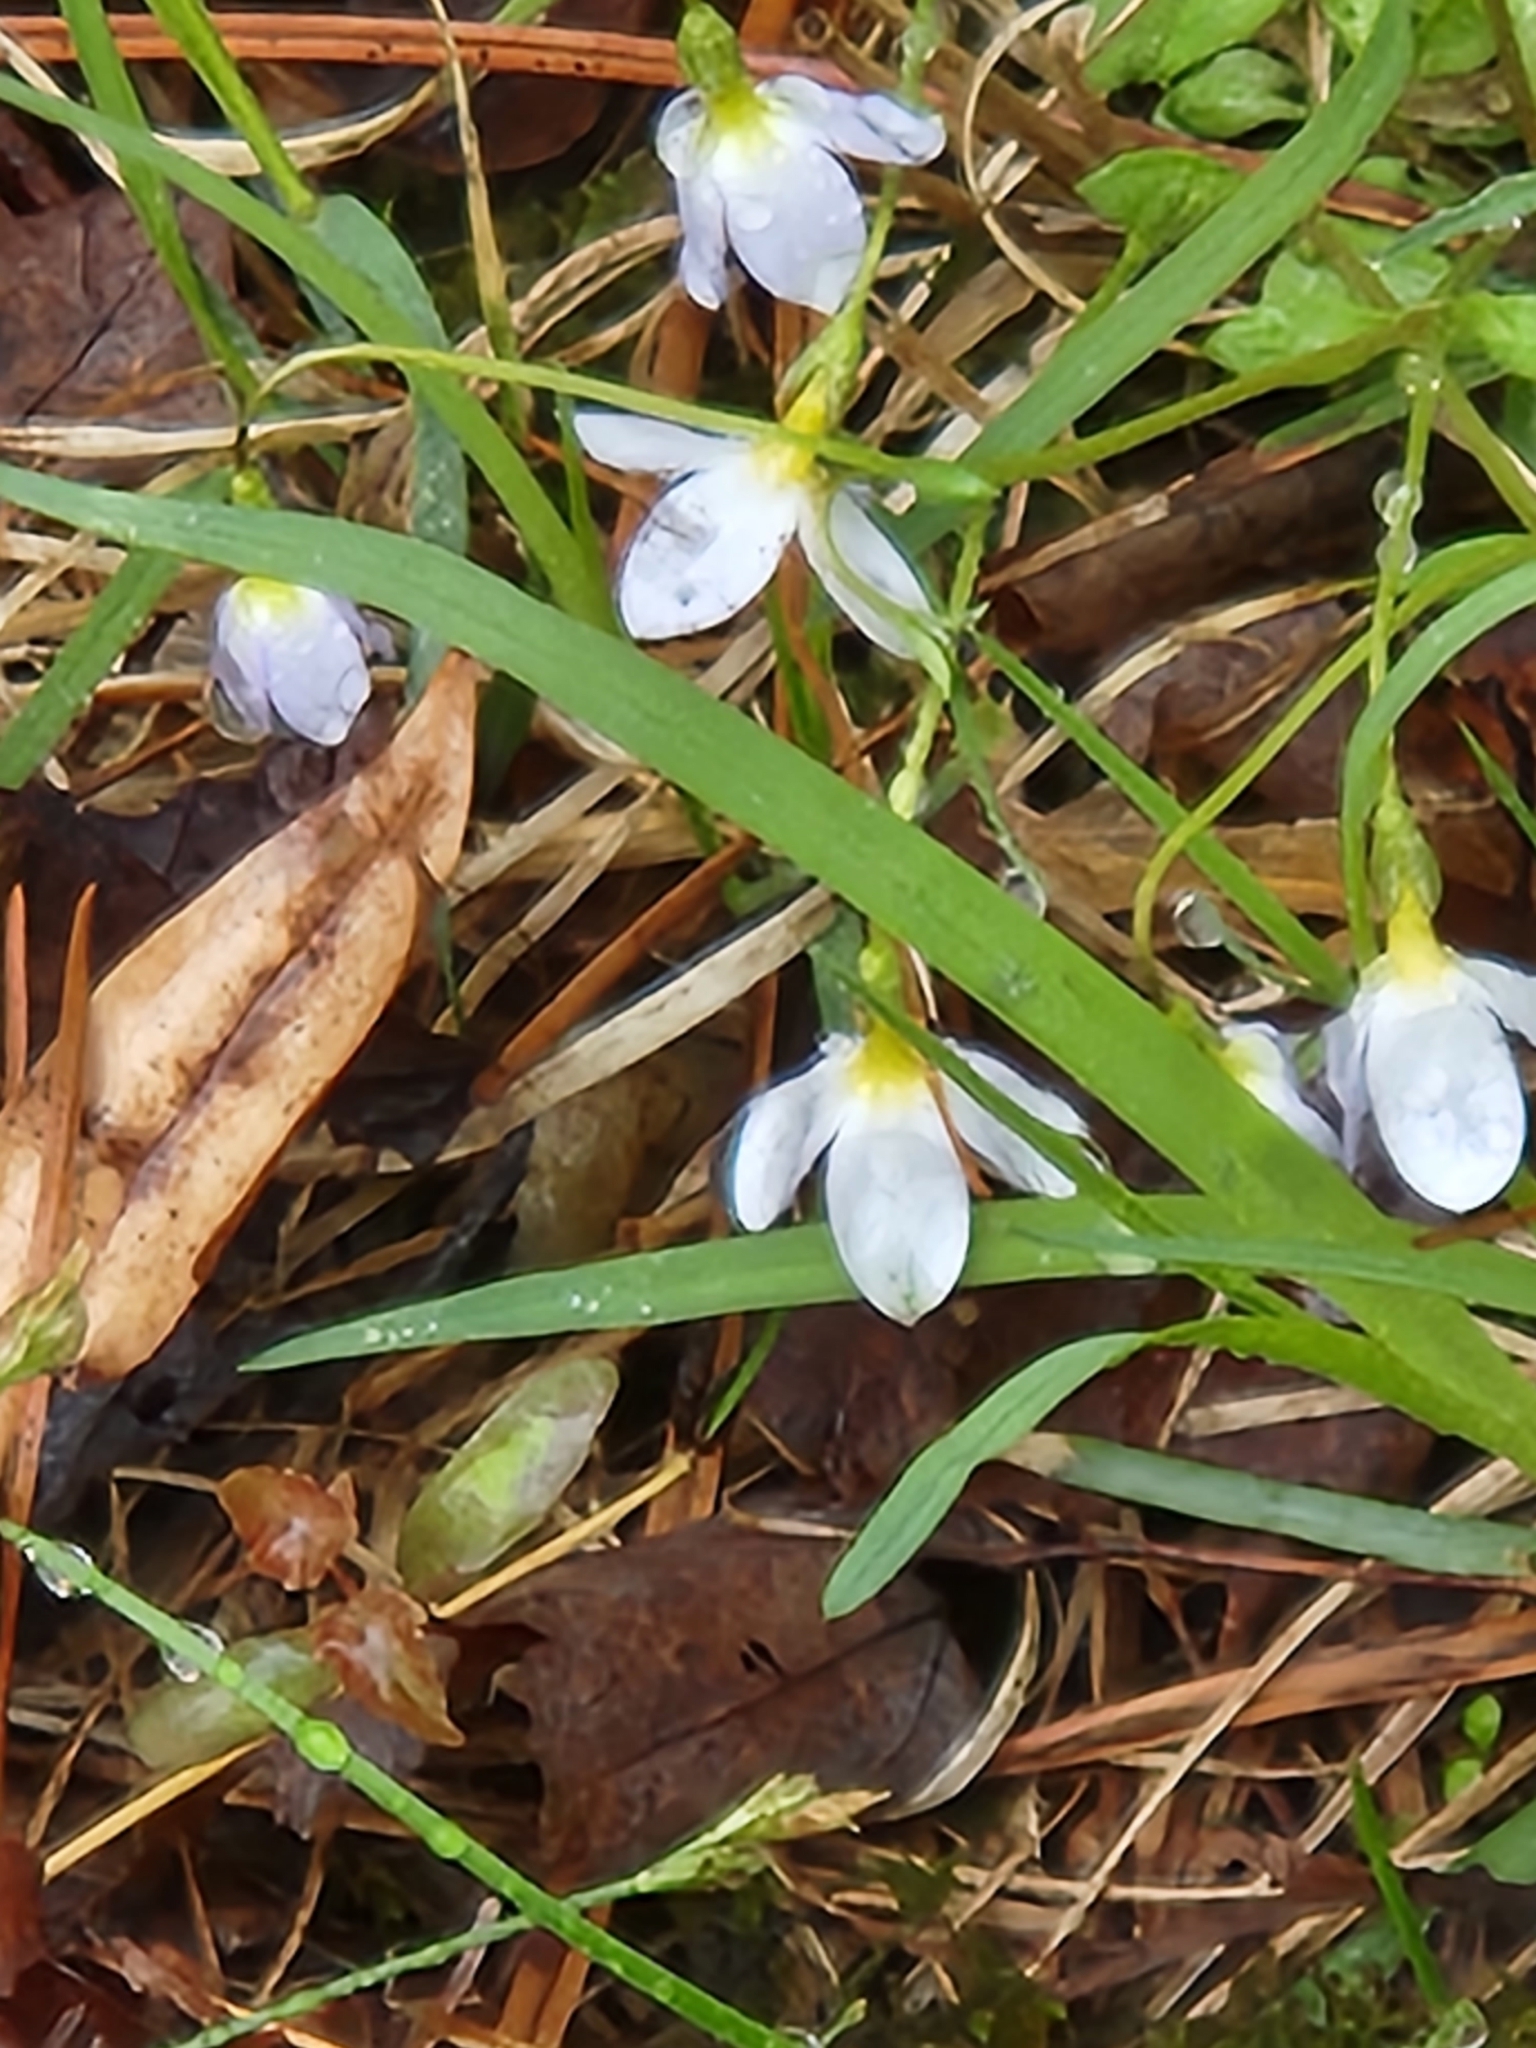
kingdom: Plantae
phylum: Tracheophyta
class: Magnoliopsida
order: Gentianales
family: Rubiaceae
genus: Houstonia
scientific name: Houstonia caerulea
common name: Bluets
